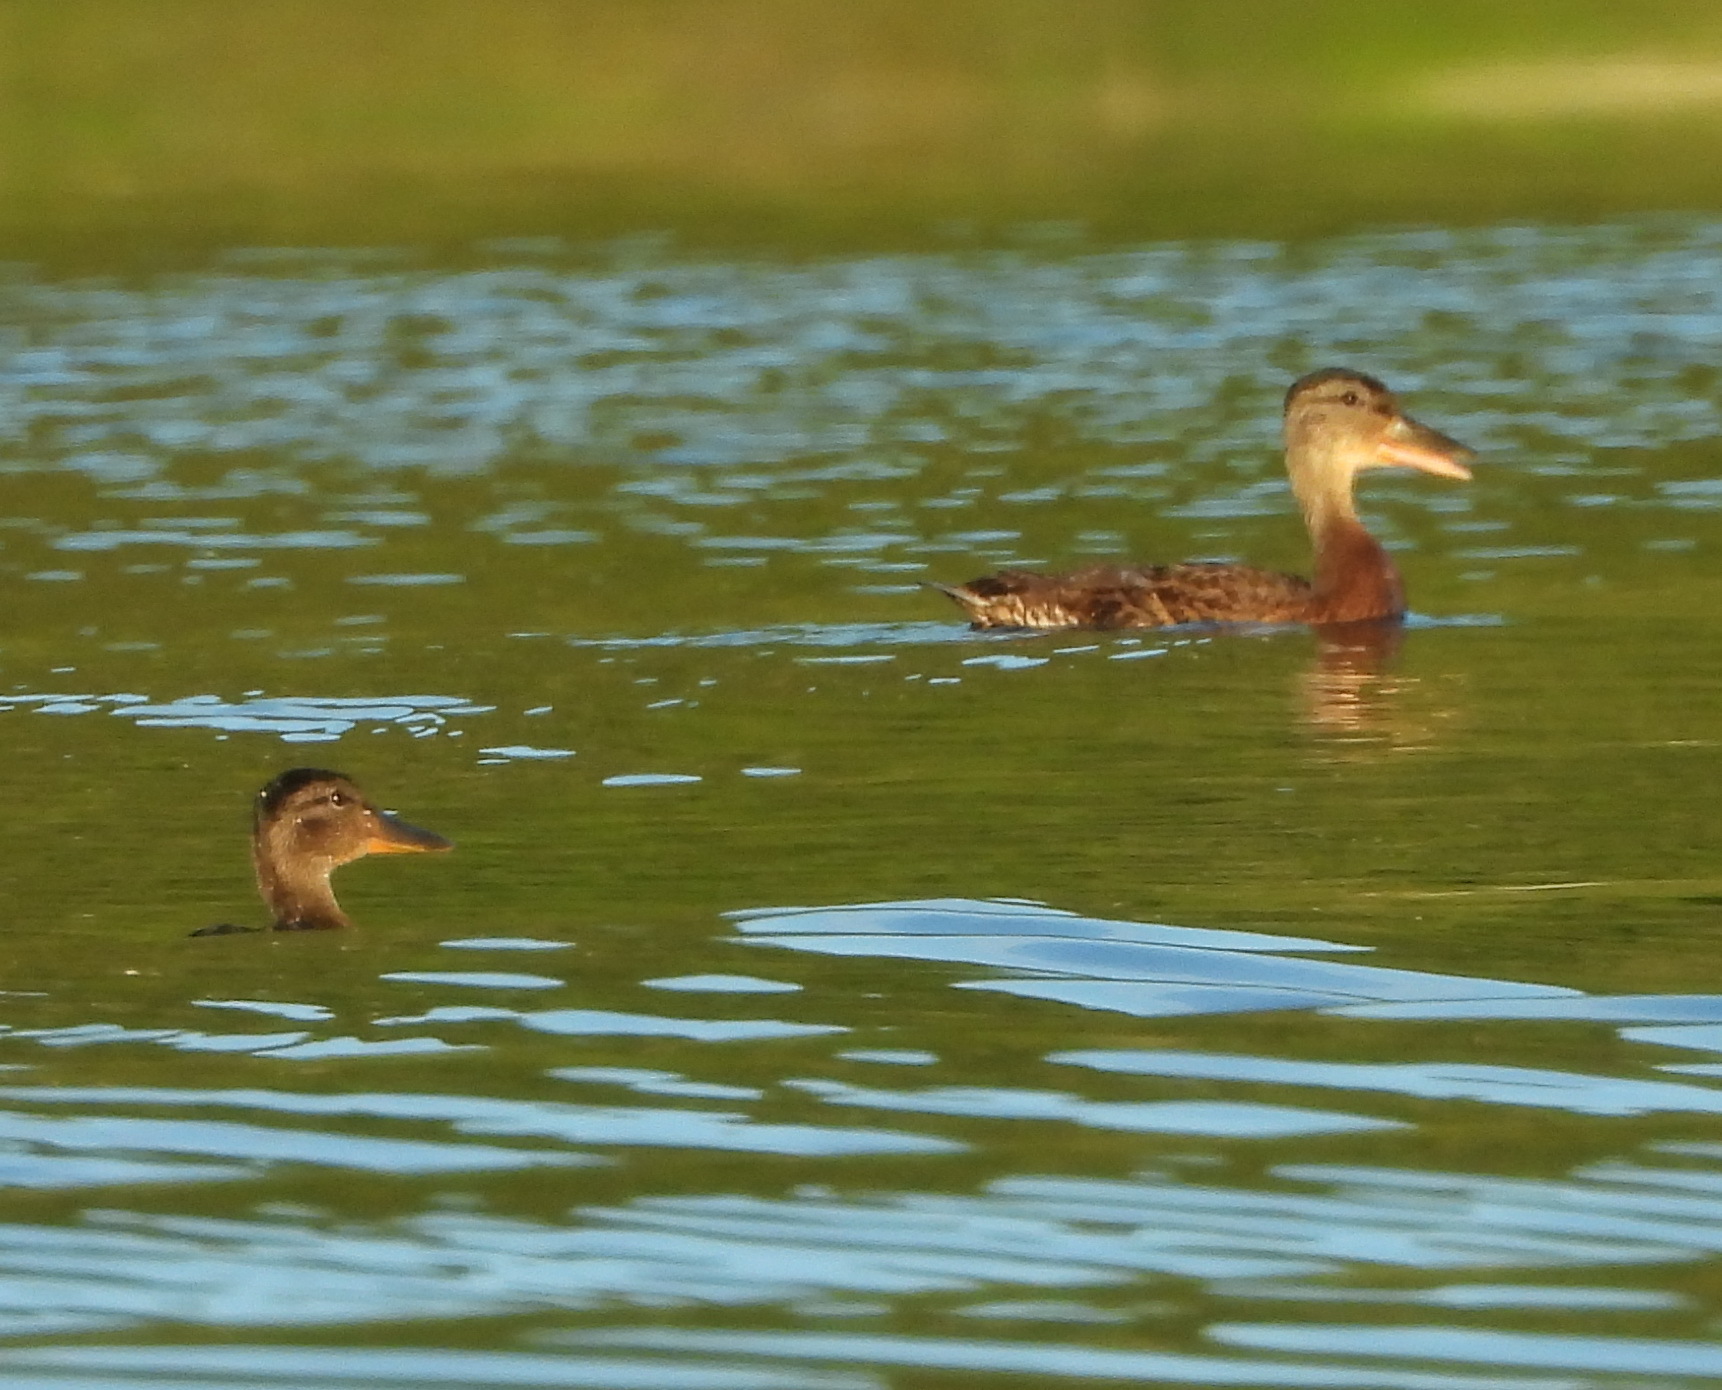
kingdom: Animalia
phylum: Chordata
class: Aves
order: Anseriformes
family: Anatidae
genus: Anas
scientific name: Anas platyrhynchos
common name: Mallard
